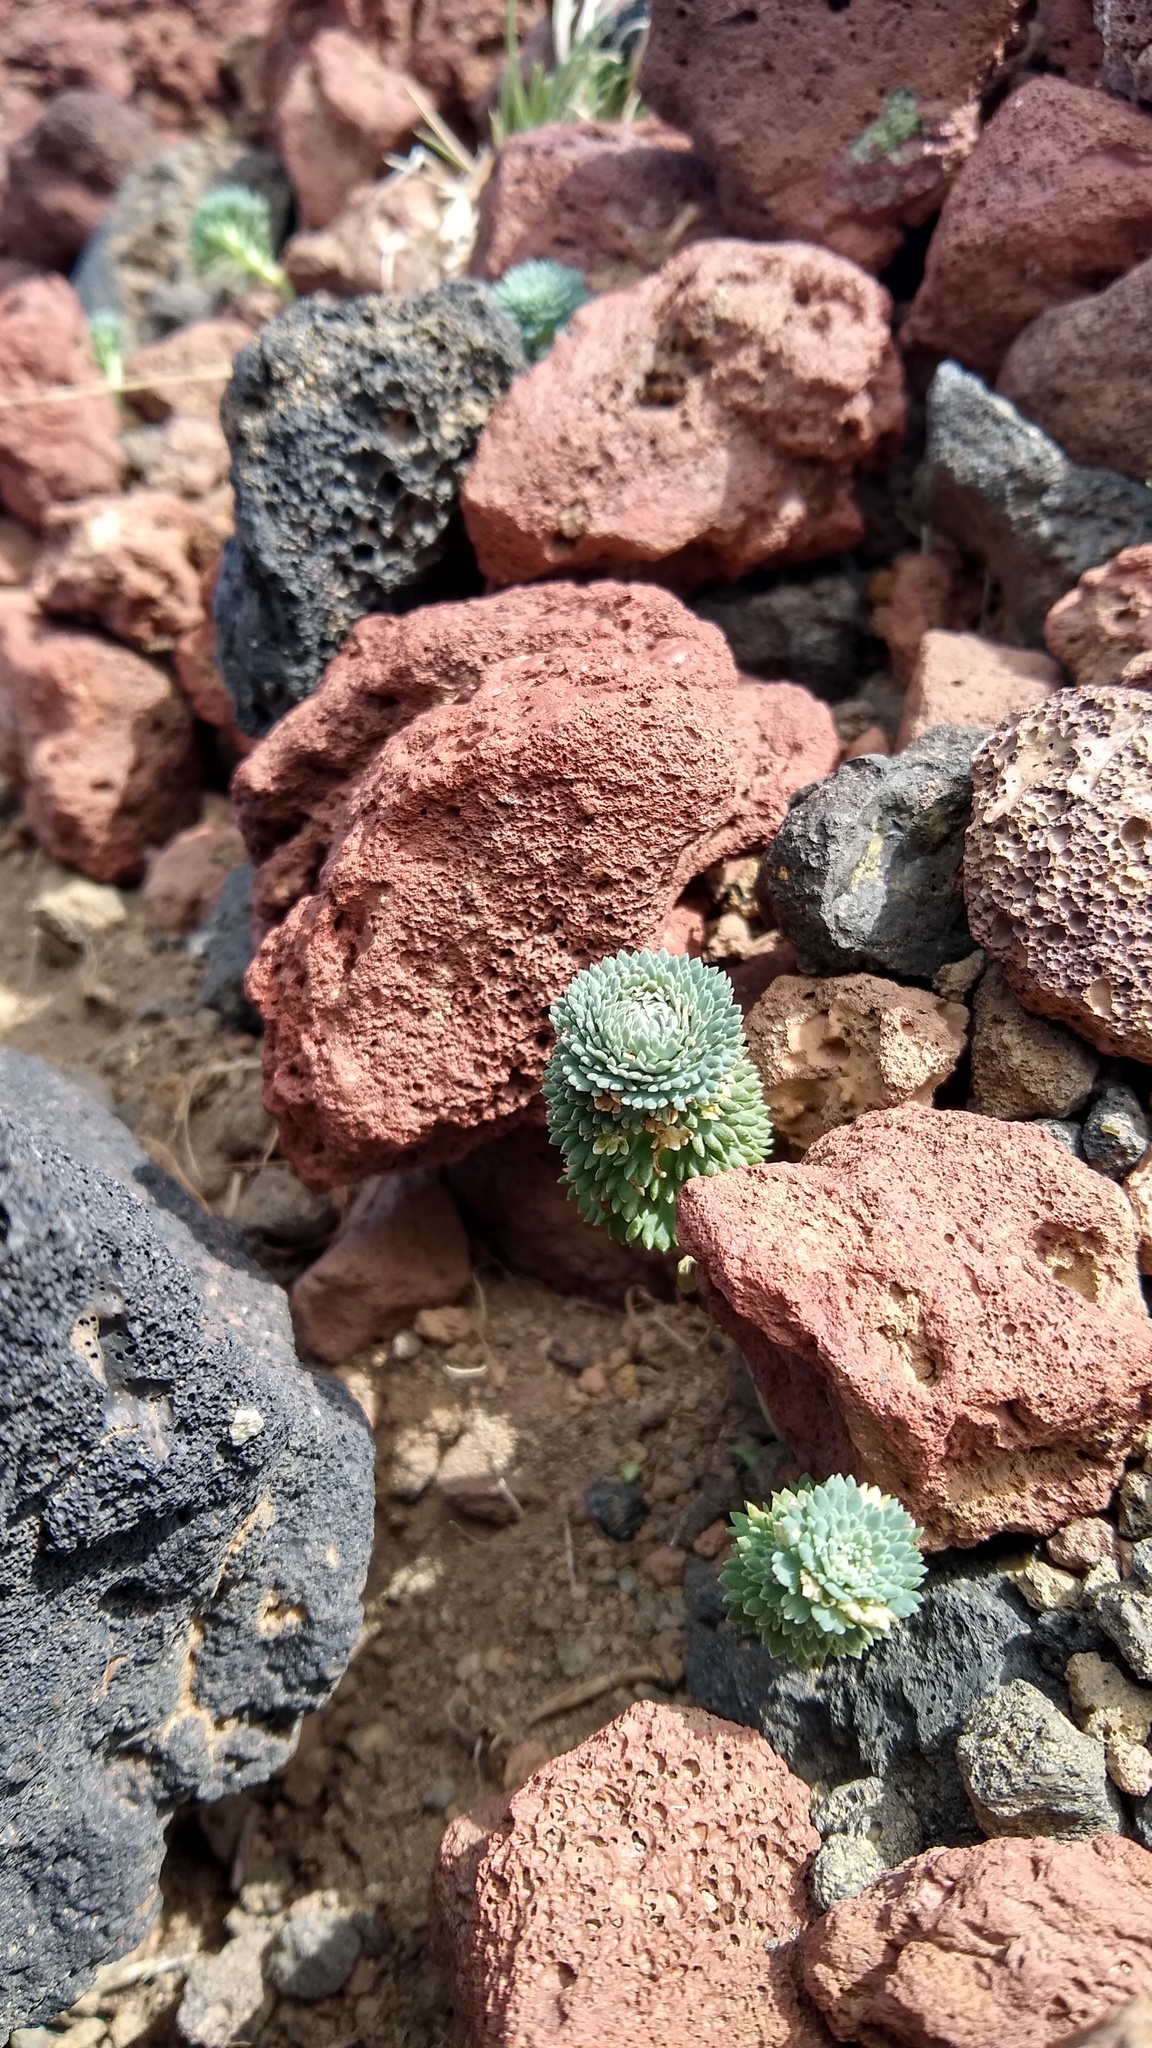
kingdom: Plantae
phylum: Tracheophyta
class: Magnoliopsida
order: Asterales
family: Calyceraceae
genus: Moschopsis
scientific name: Moschopsis trilobata
